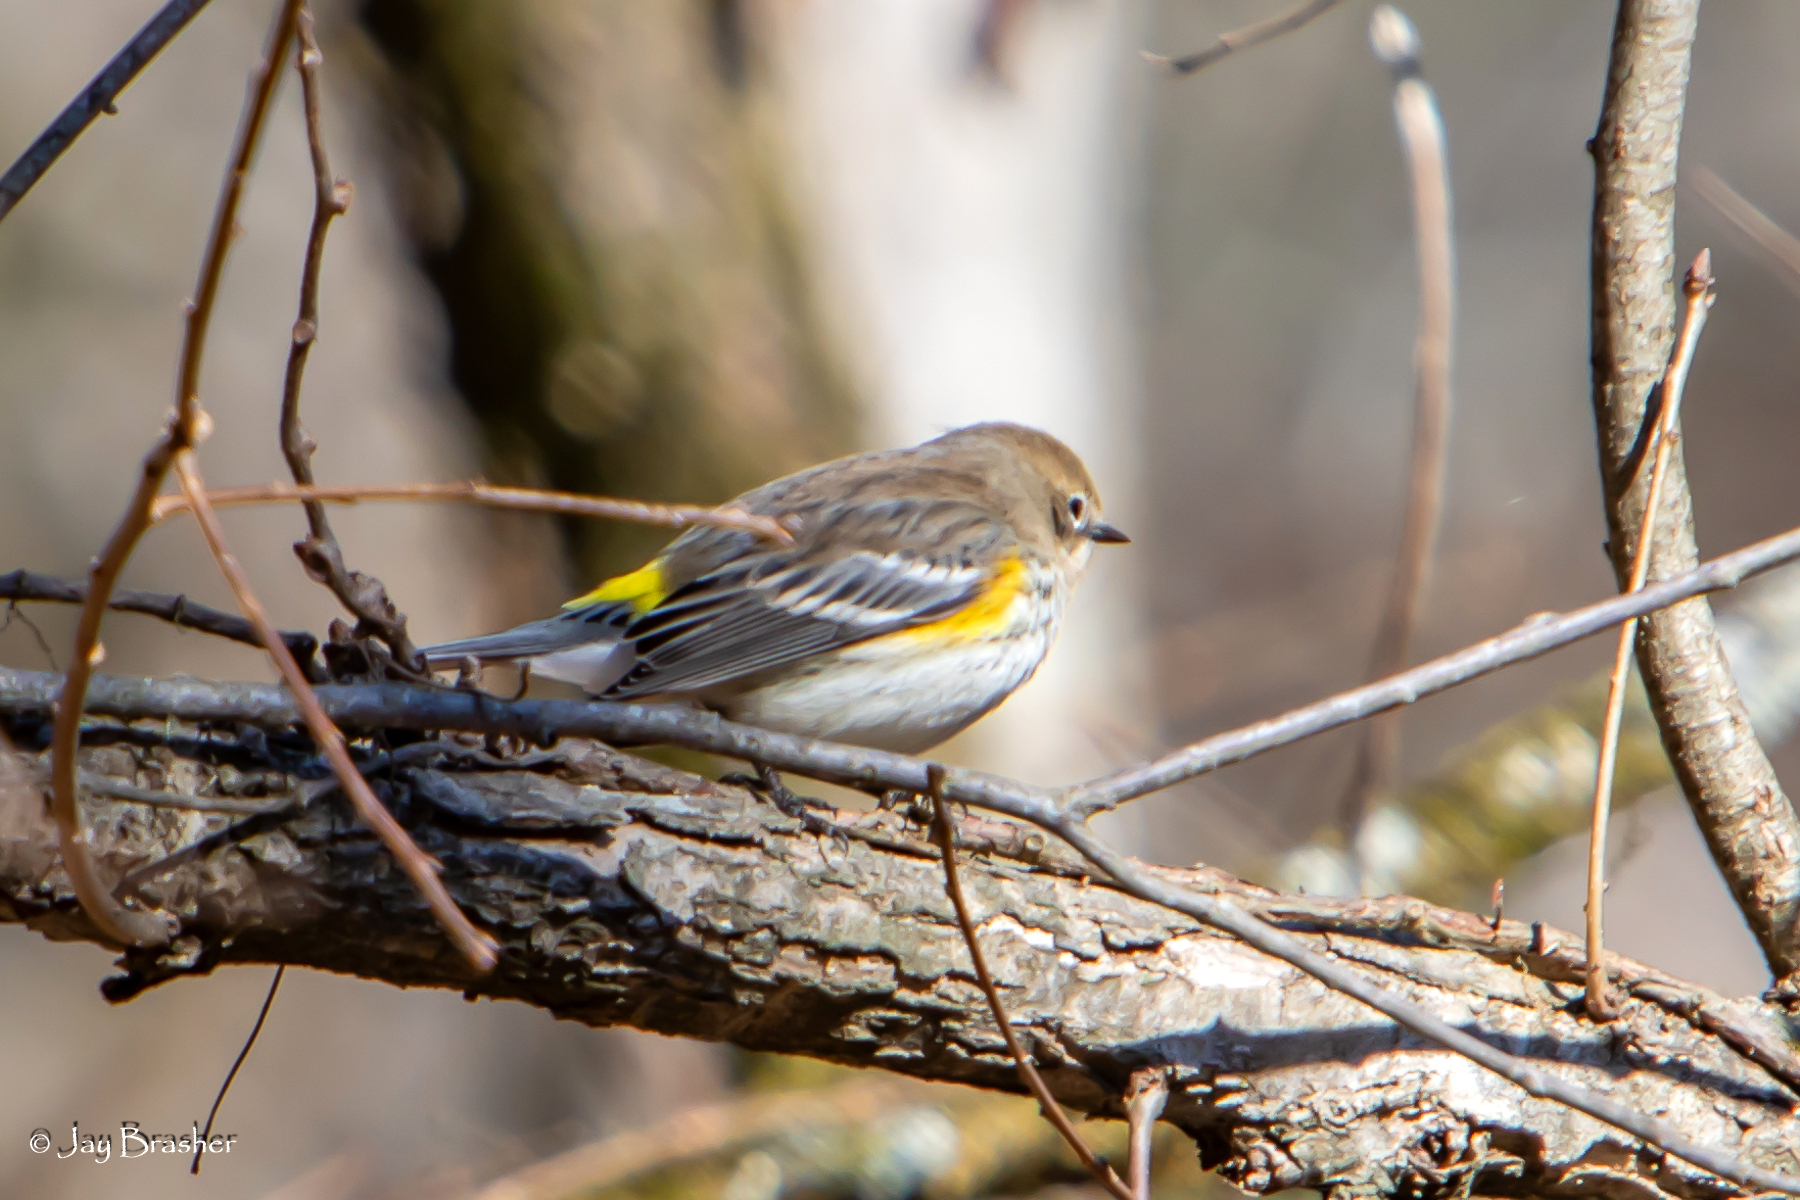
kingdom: Animalia
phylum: Chordata
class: Aves
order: Passeriformes
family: Parulidae
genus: Setophaga
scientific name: Setophaga coronata
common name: Myrtle warbler
